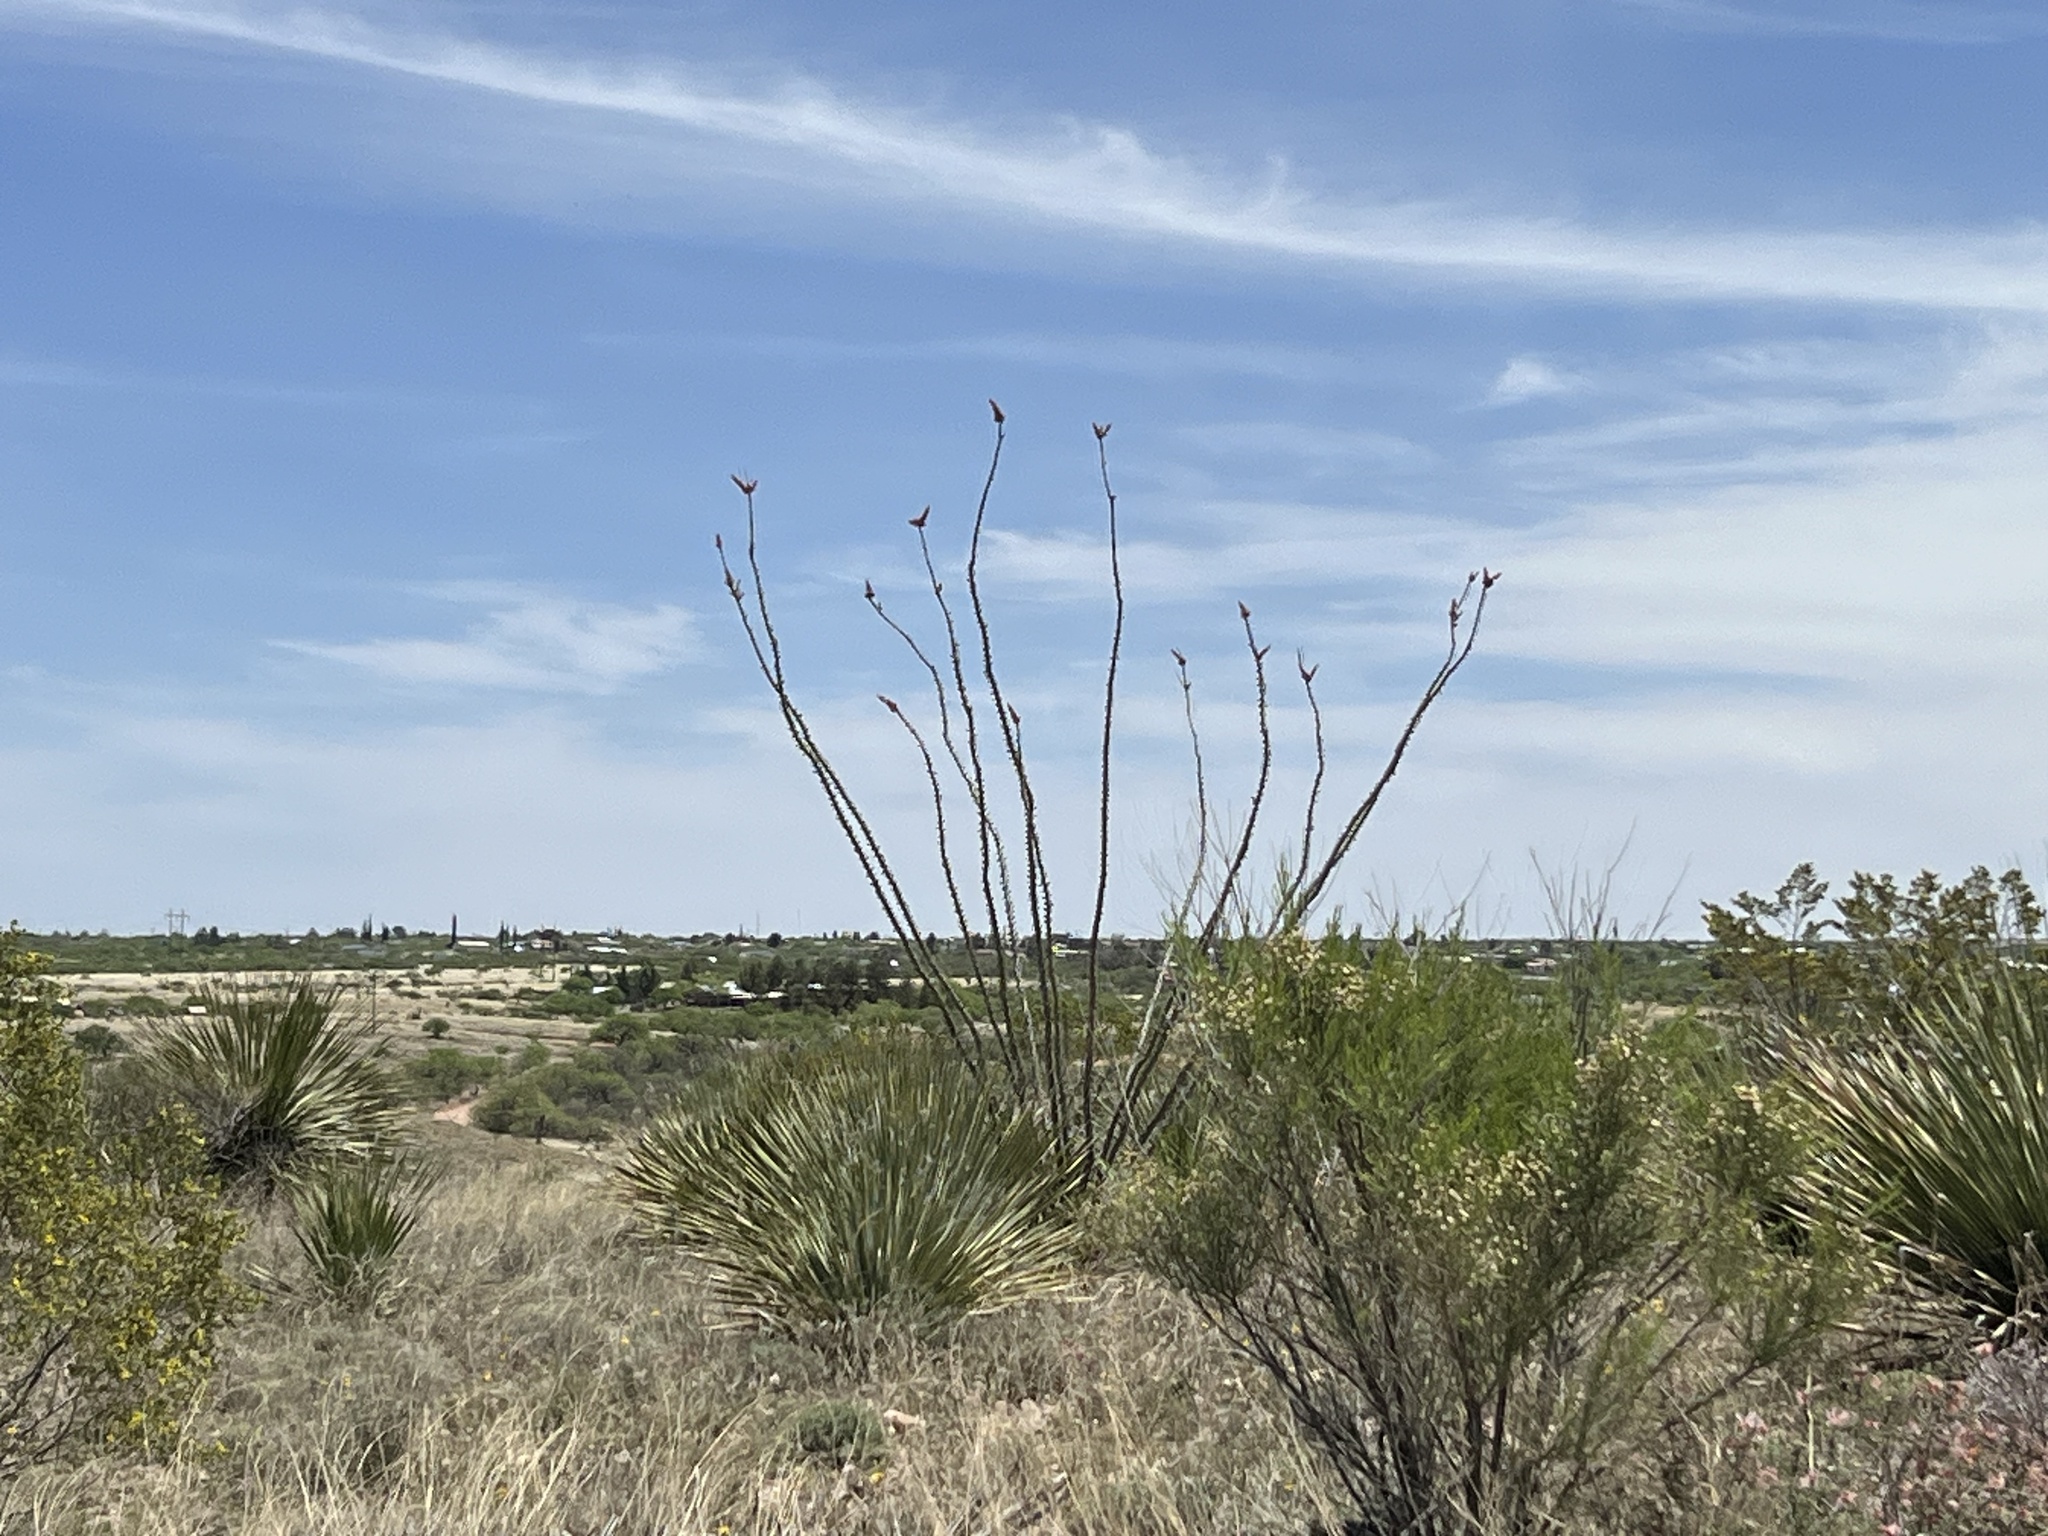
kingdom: Plantae
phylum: Tracheophyta
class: Magnoliopsida
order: Ericales
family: Fouquieriaceae
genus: Fouquieria
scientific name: Fouquieria splendens
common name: Vine-cactus
